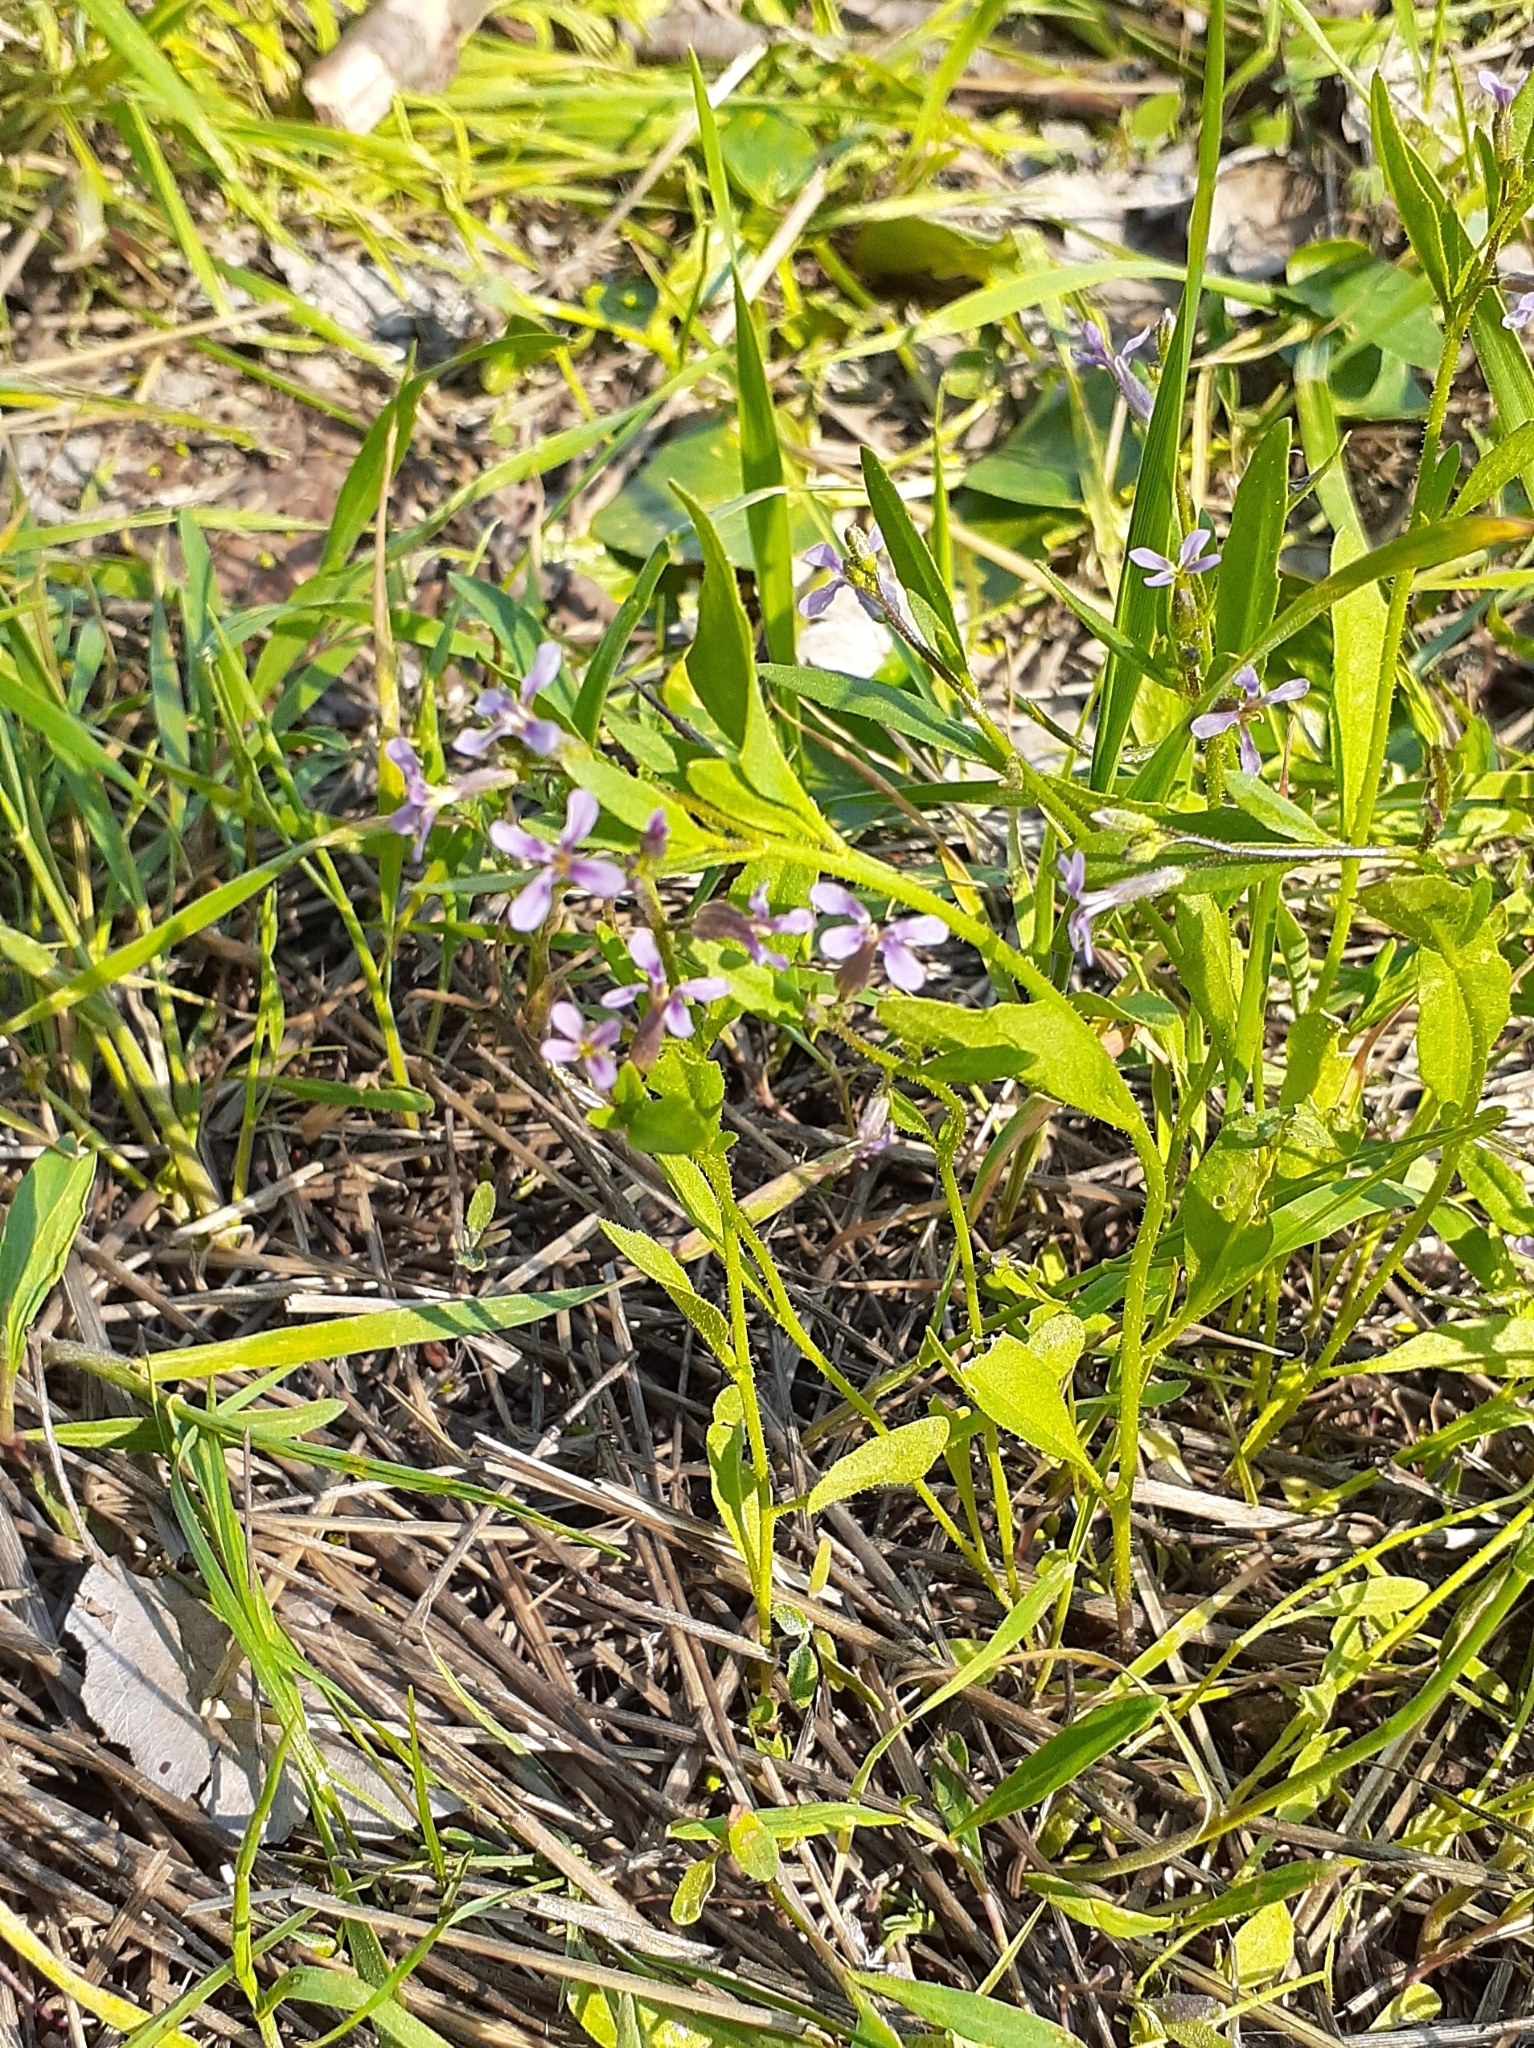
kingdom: Plantae
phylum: Tracheophyta
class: Magnoliopsida
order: Brassicales
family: Brassicaceae
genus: Chorispora
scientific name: Chorispora tenella
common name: Crossflower
